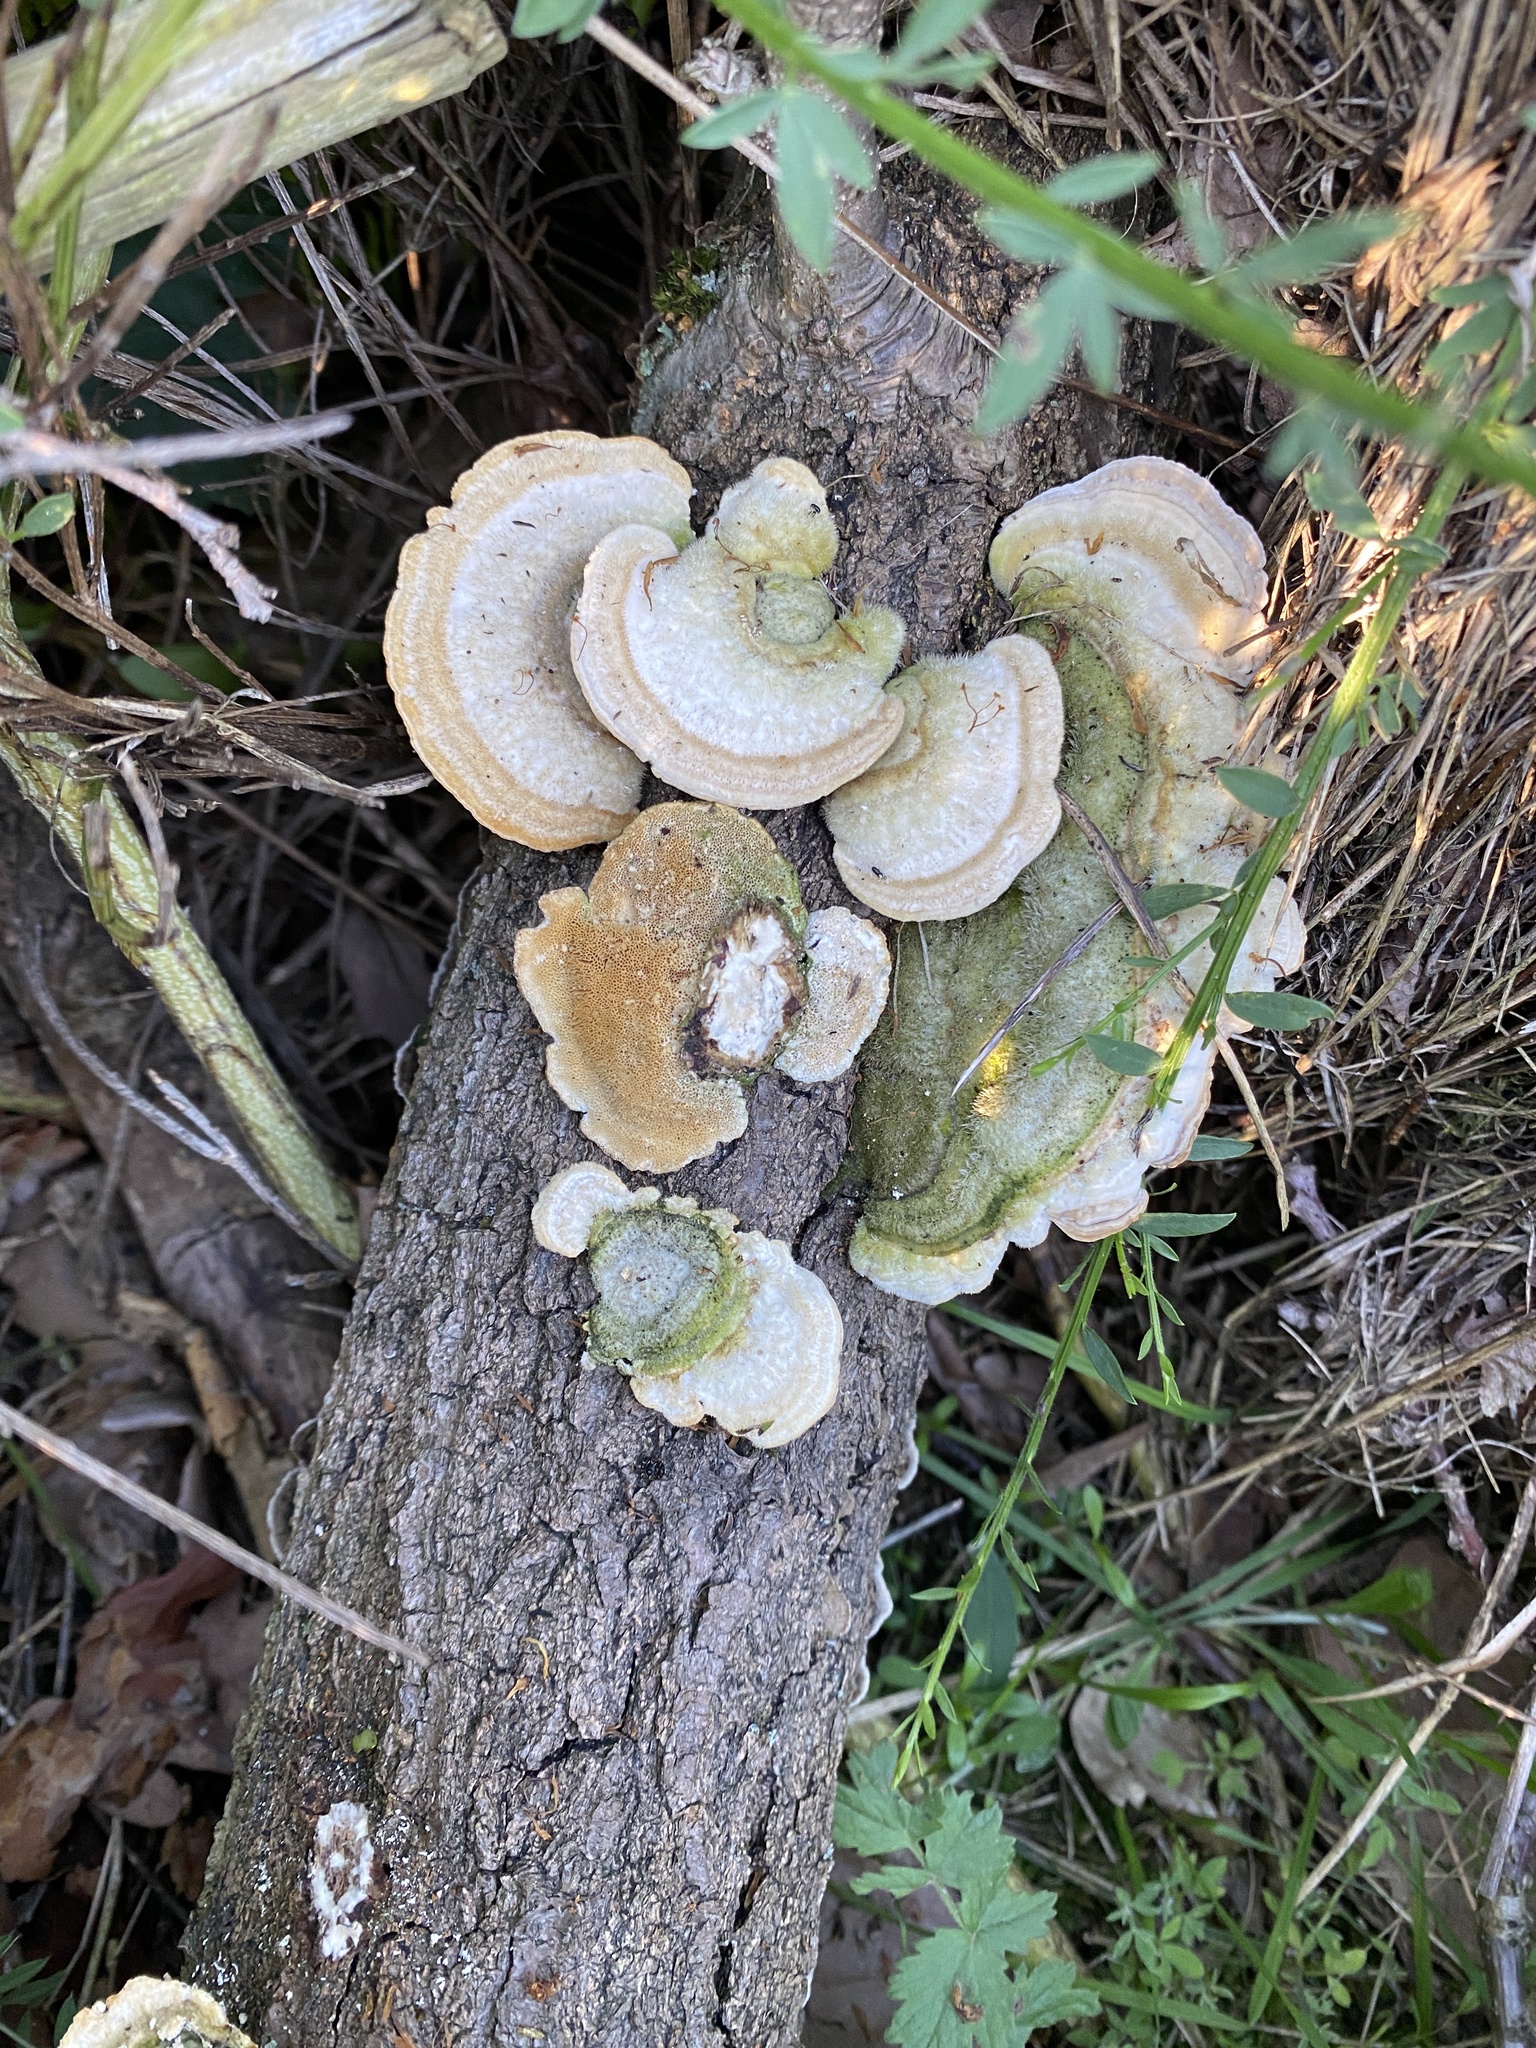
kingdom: Fungi
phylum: Basidiomycota
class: Agaricomycetes
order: Polyporales
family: Polyporaceae
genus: Trametes
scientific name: Trametes hirsuta
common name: Hairy bracket
